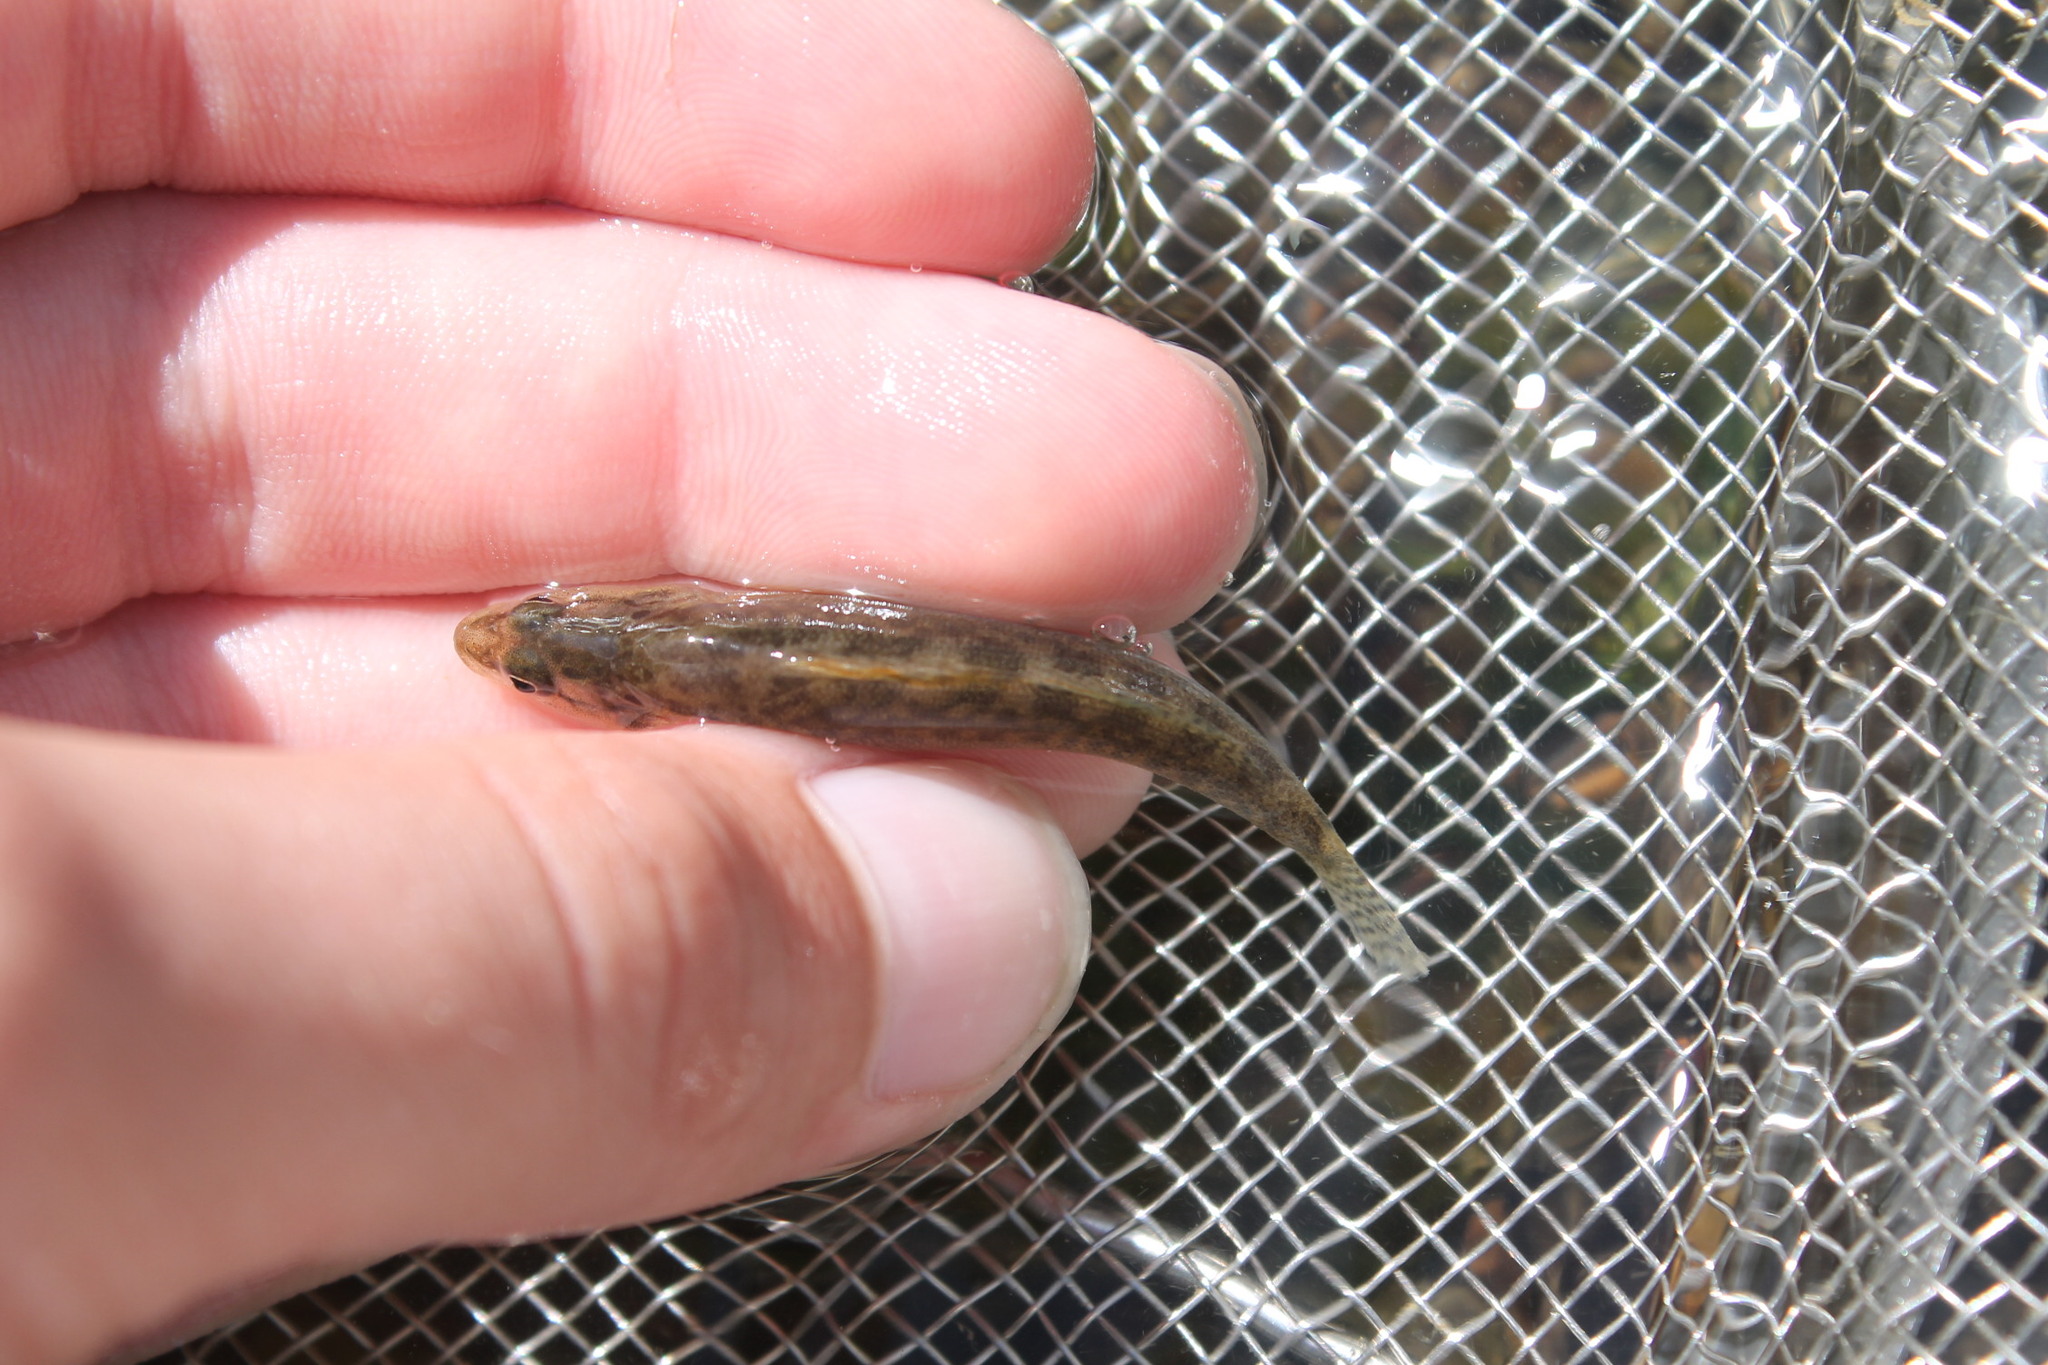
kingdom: Animalia
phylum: Chordata
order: Perciformes
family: Percidae
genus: Etheostoma
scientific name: Etheostoma flabellare
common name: Fantail darter
